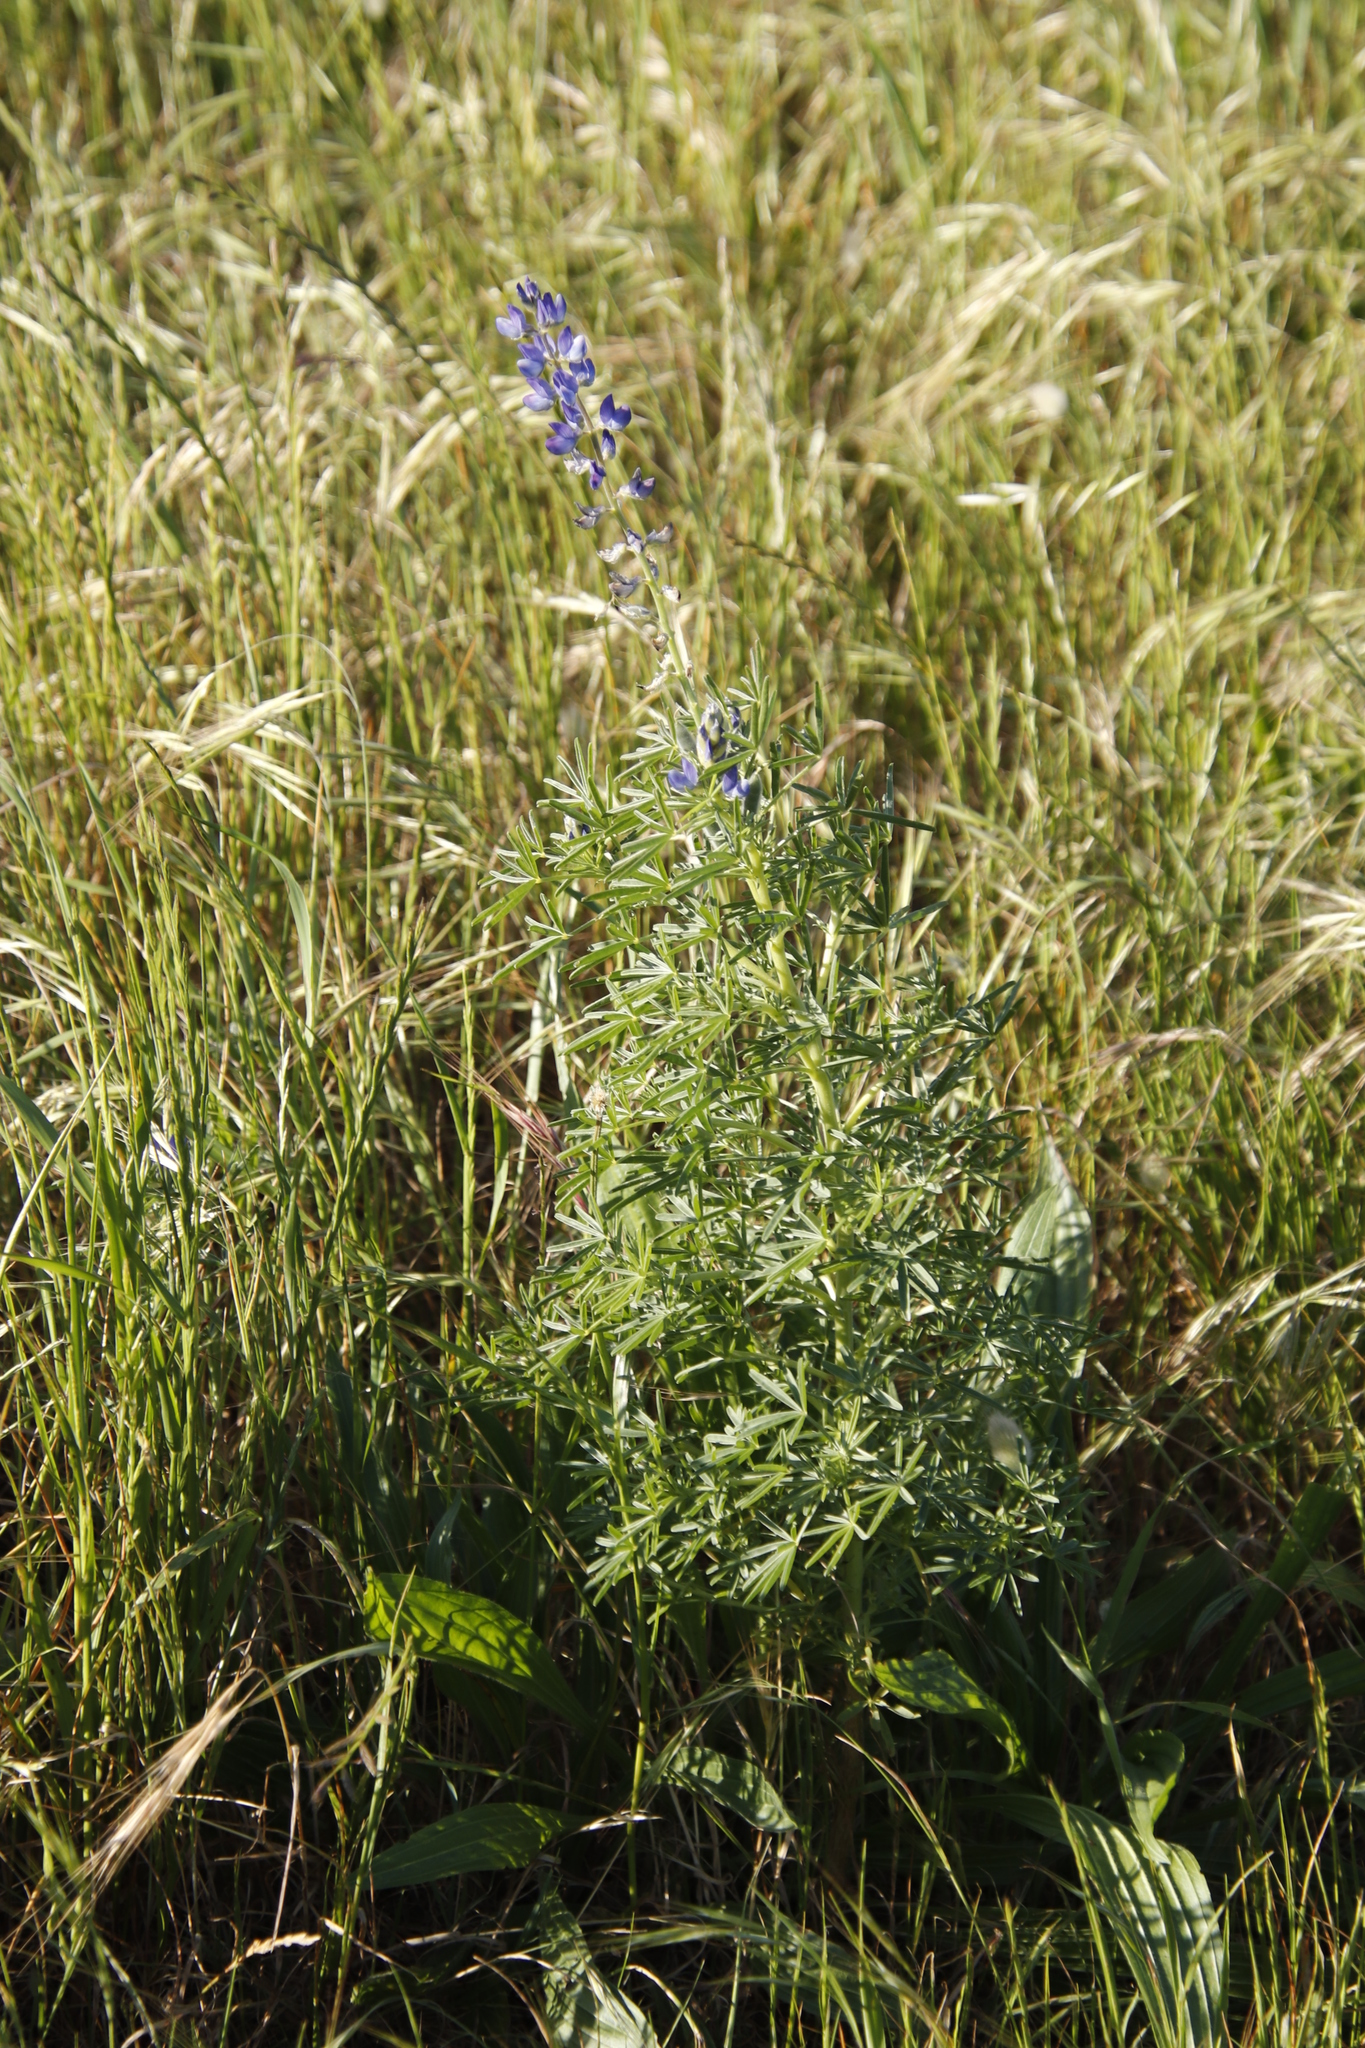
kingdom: Plantae
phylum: Tracheophyta
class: Magnoliopsida
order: Fabales
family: Fabaceae
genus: Lupinus
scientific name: Lupinus angustifolius
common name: Narrow-leaved lupin
